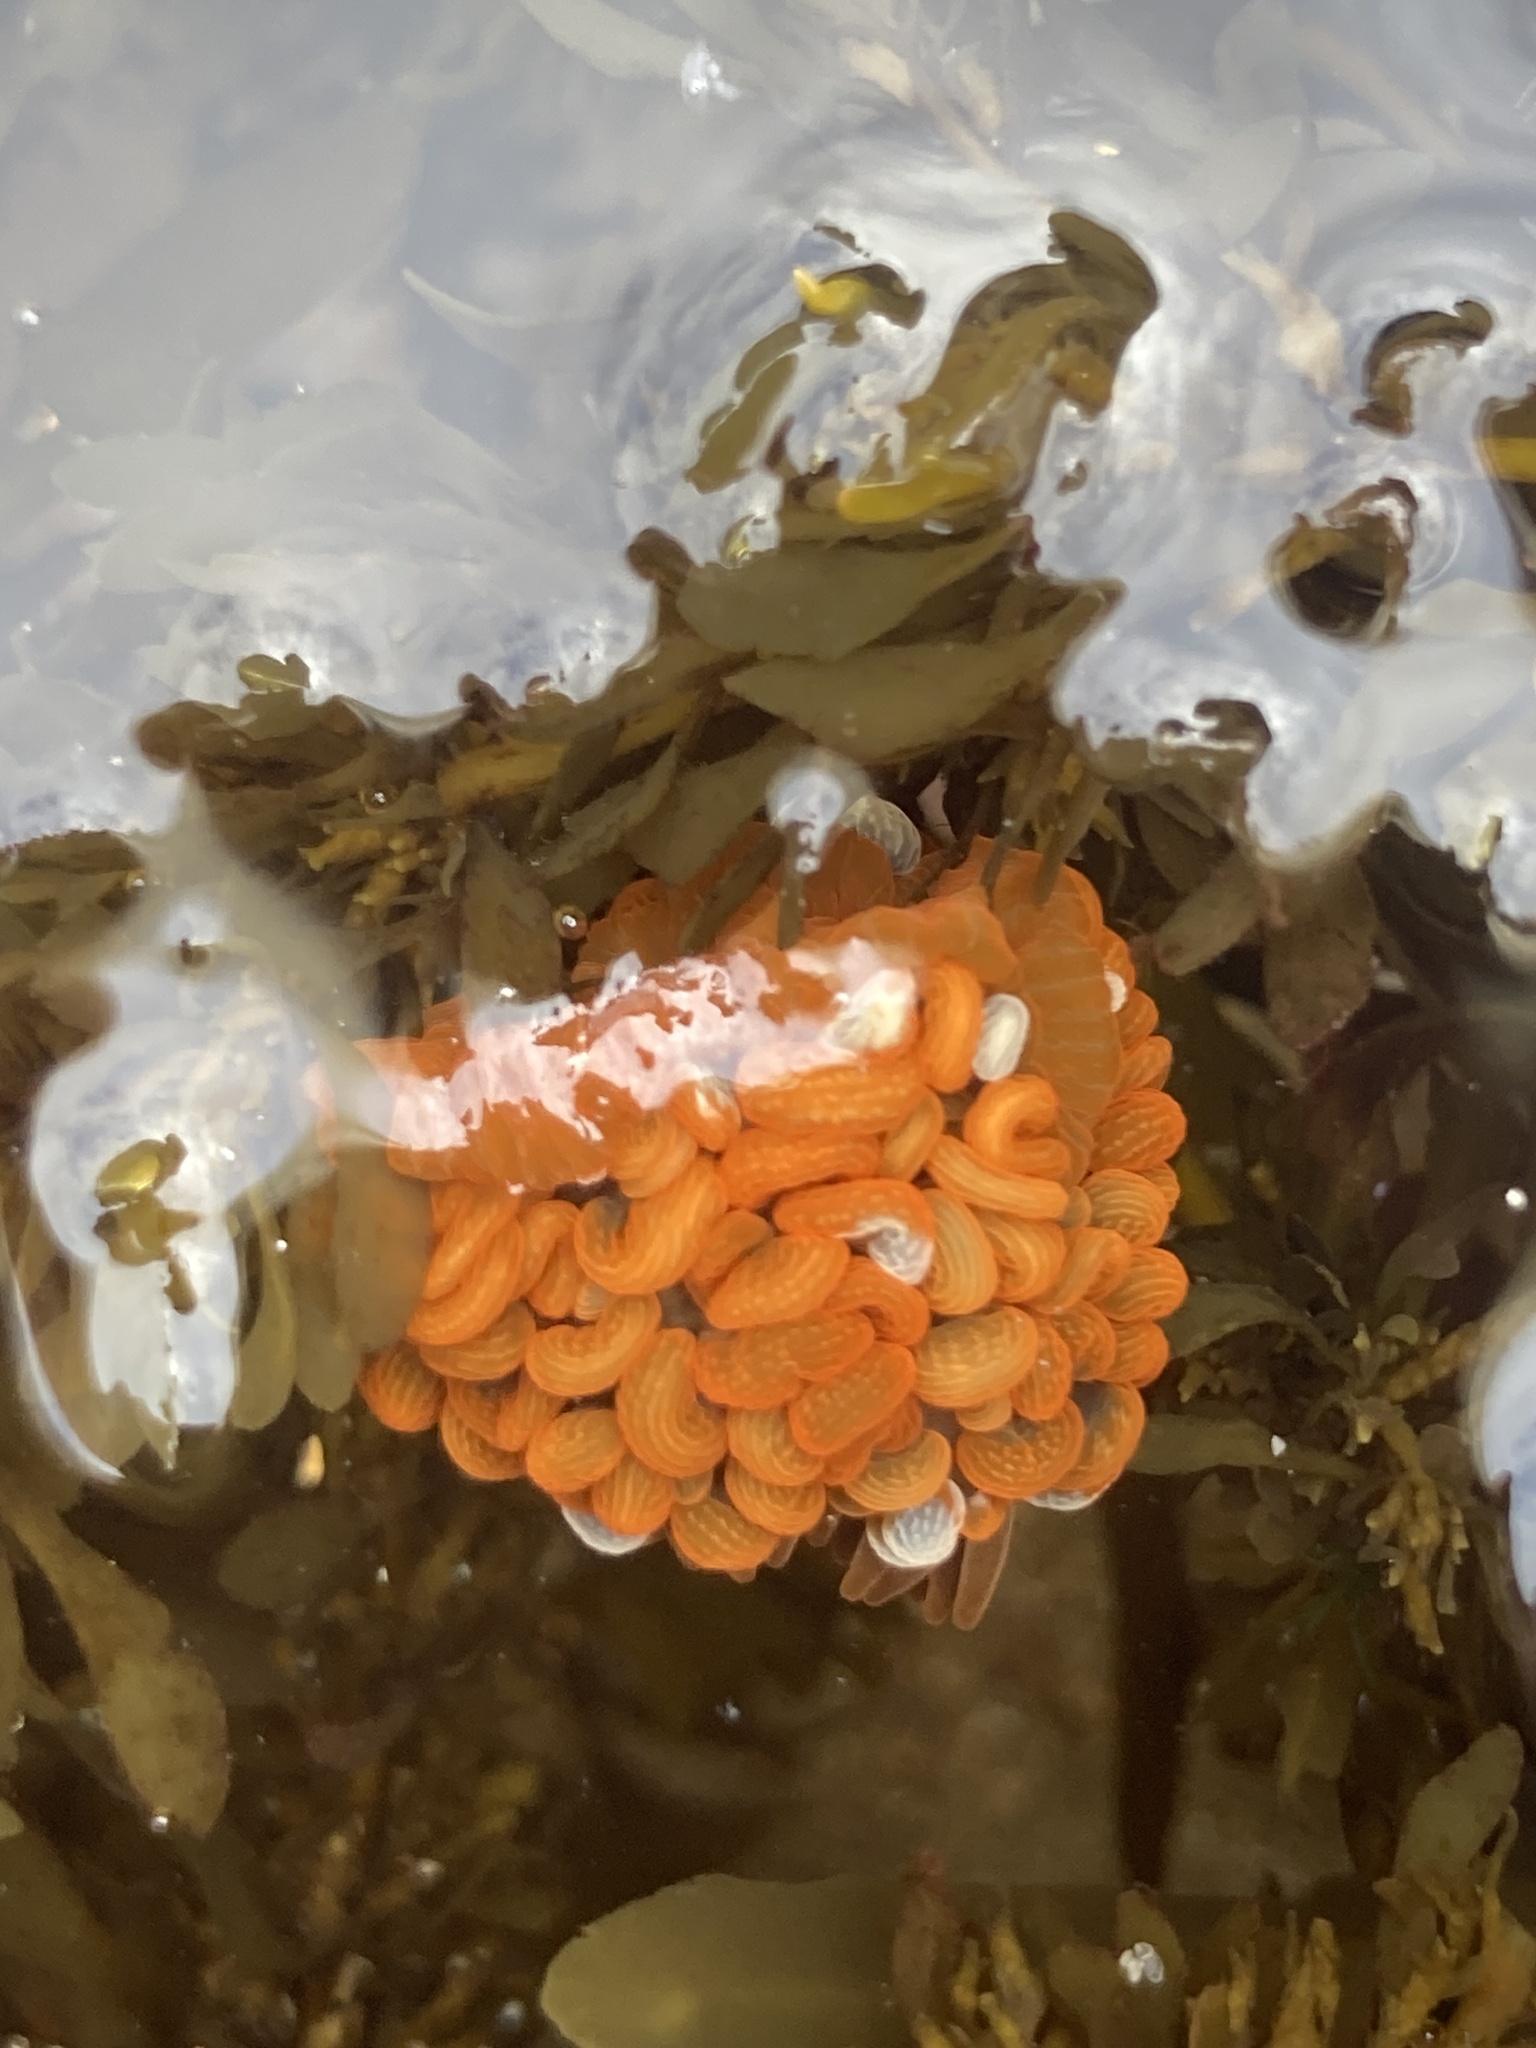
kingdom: Animalia
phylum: Cnidaria
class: Anthozoa
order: Actiniaria
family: Actiniidae
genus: Phlyctenactis
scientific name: Phlyctenactis tuberculosa
